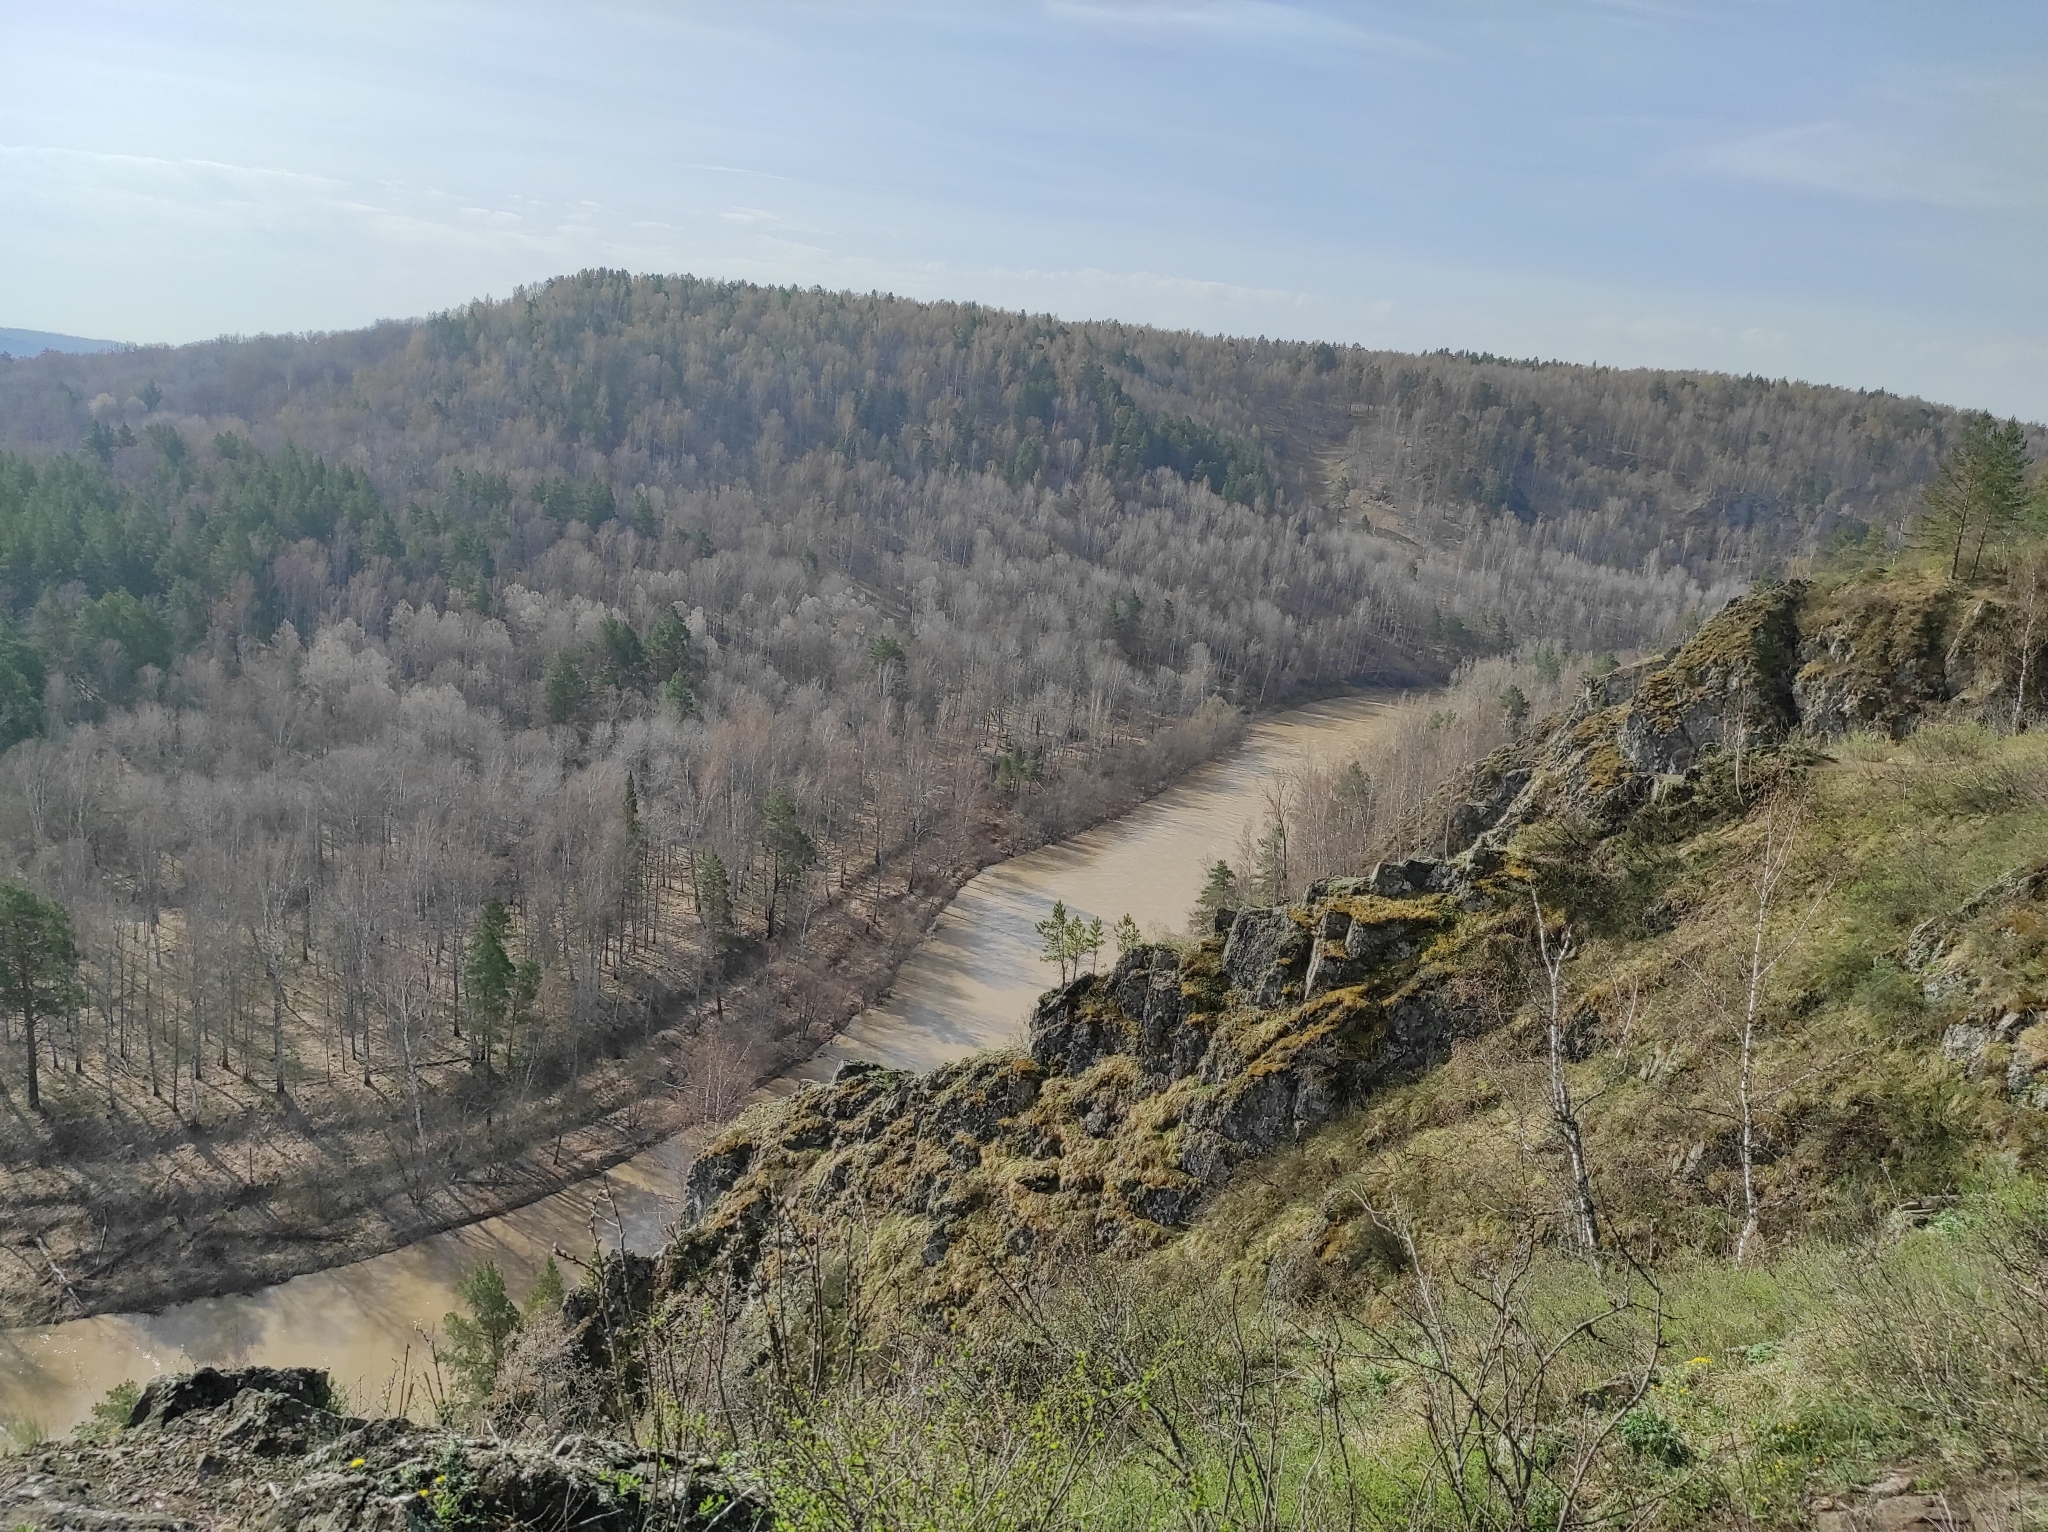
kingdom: Plantae
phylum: Tracheophyta
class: Pinopsida
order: Pinales
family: Pinaceae
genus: Pinus
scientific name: Pinus sylvestris
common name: Scots pine
